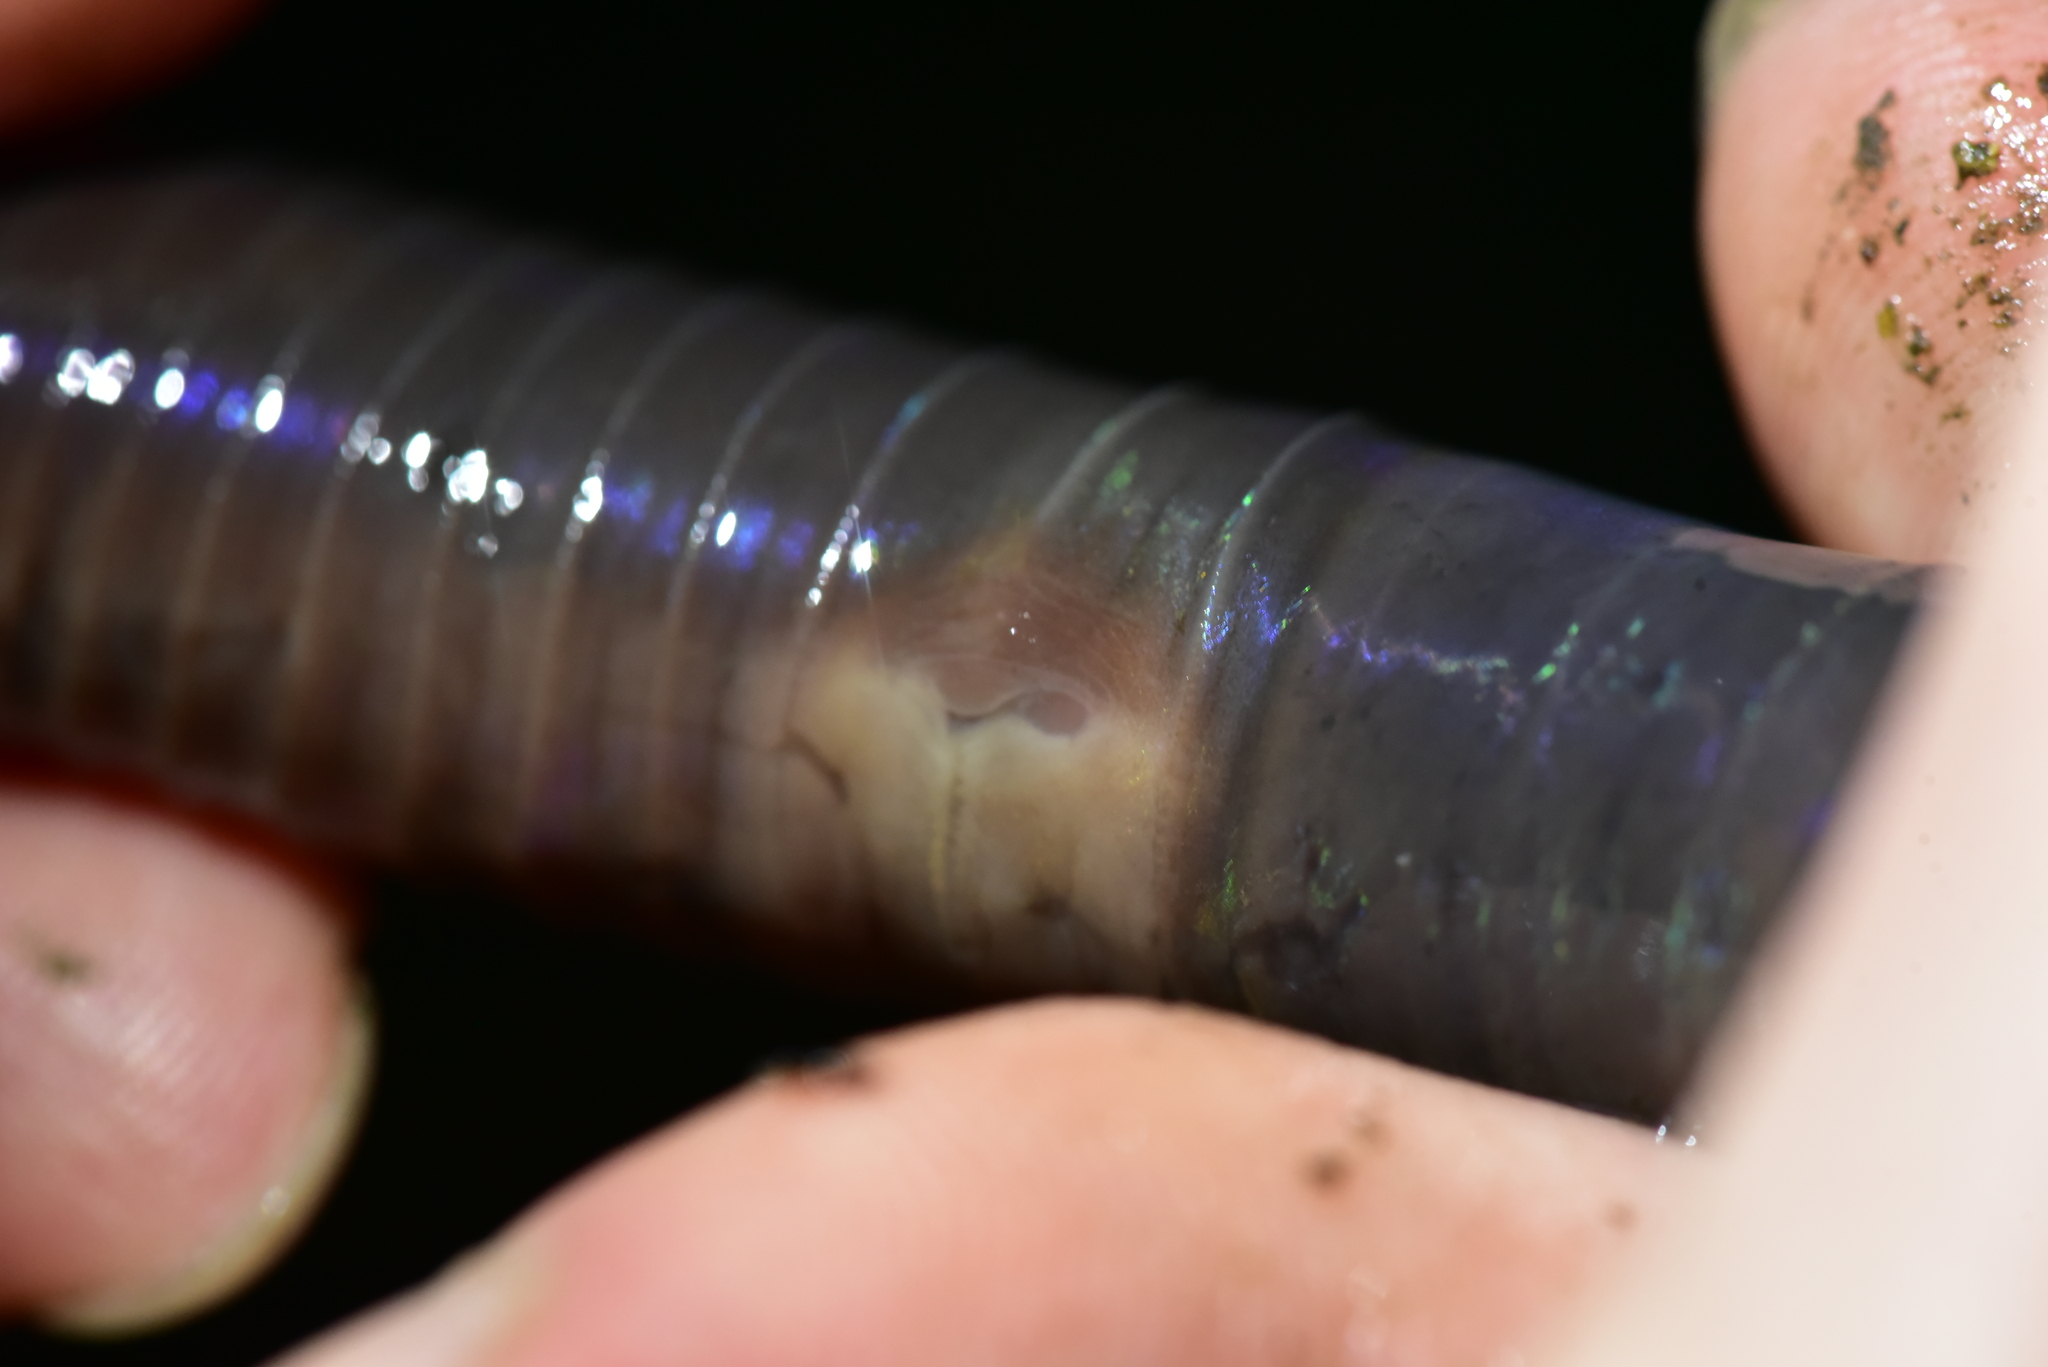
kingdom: Animalia
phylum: Annelida
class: Clitellata
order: Crassiclitellata
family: Megascolecidae
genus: Metaphire
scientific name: Metaphire taiwanensis
